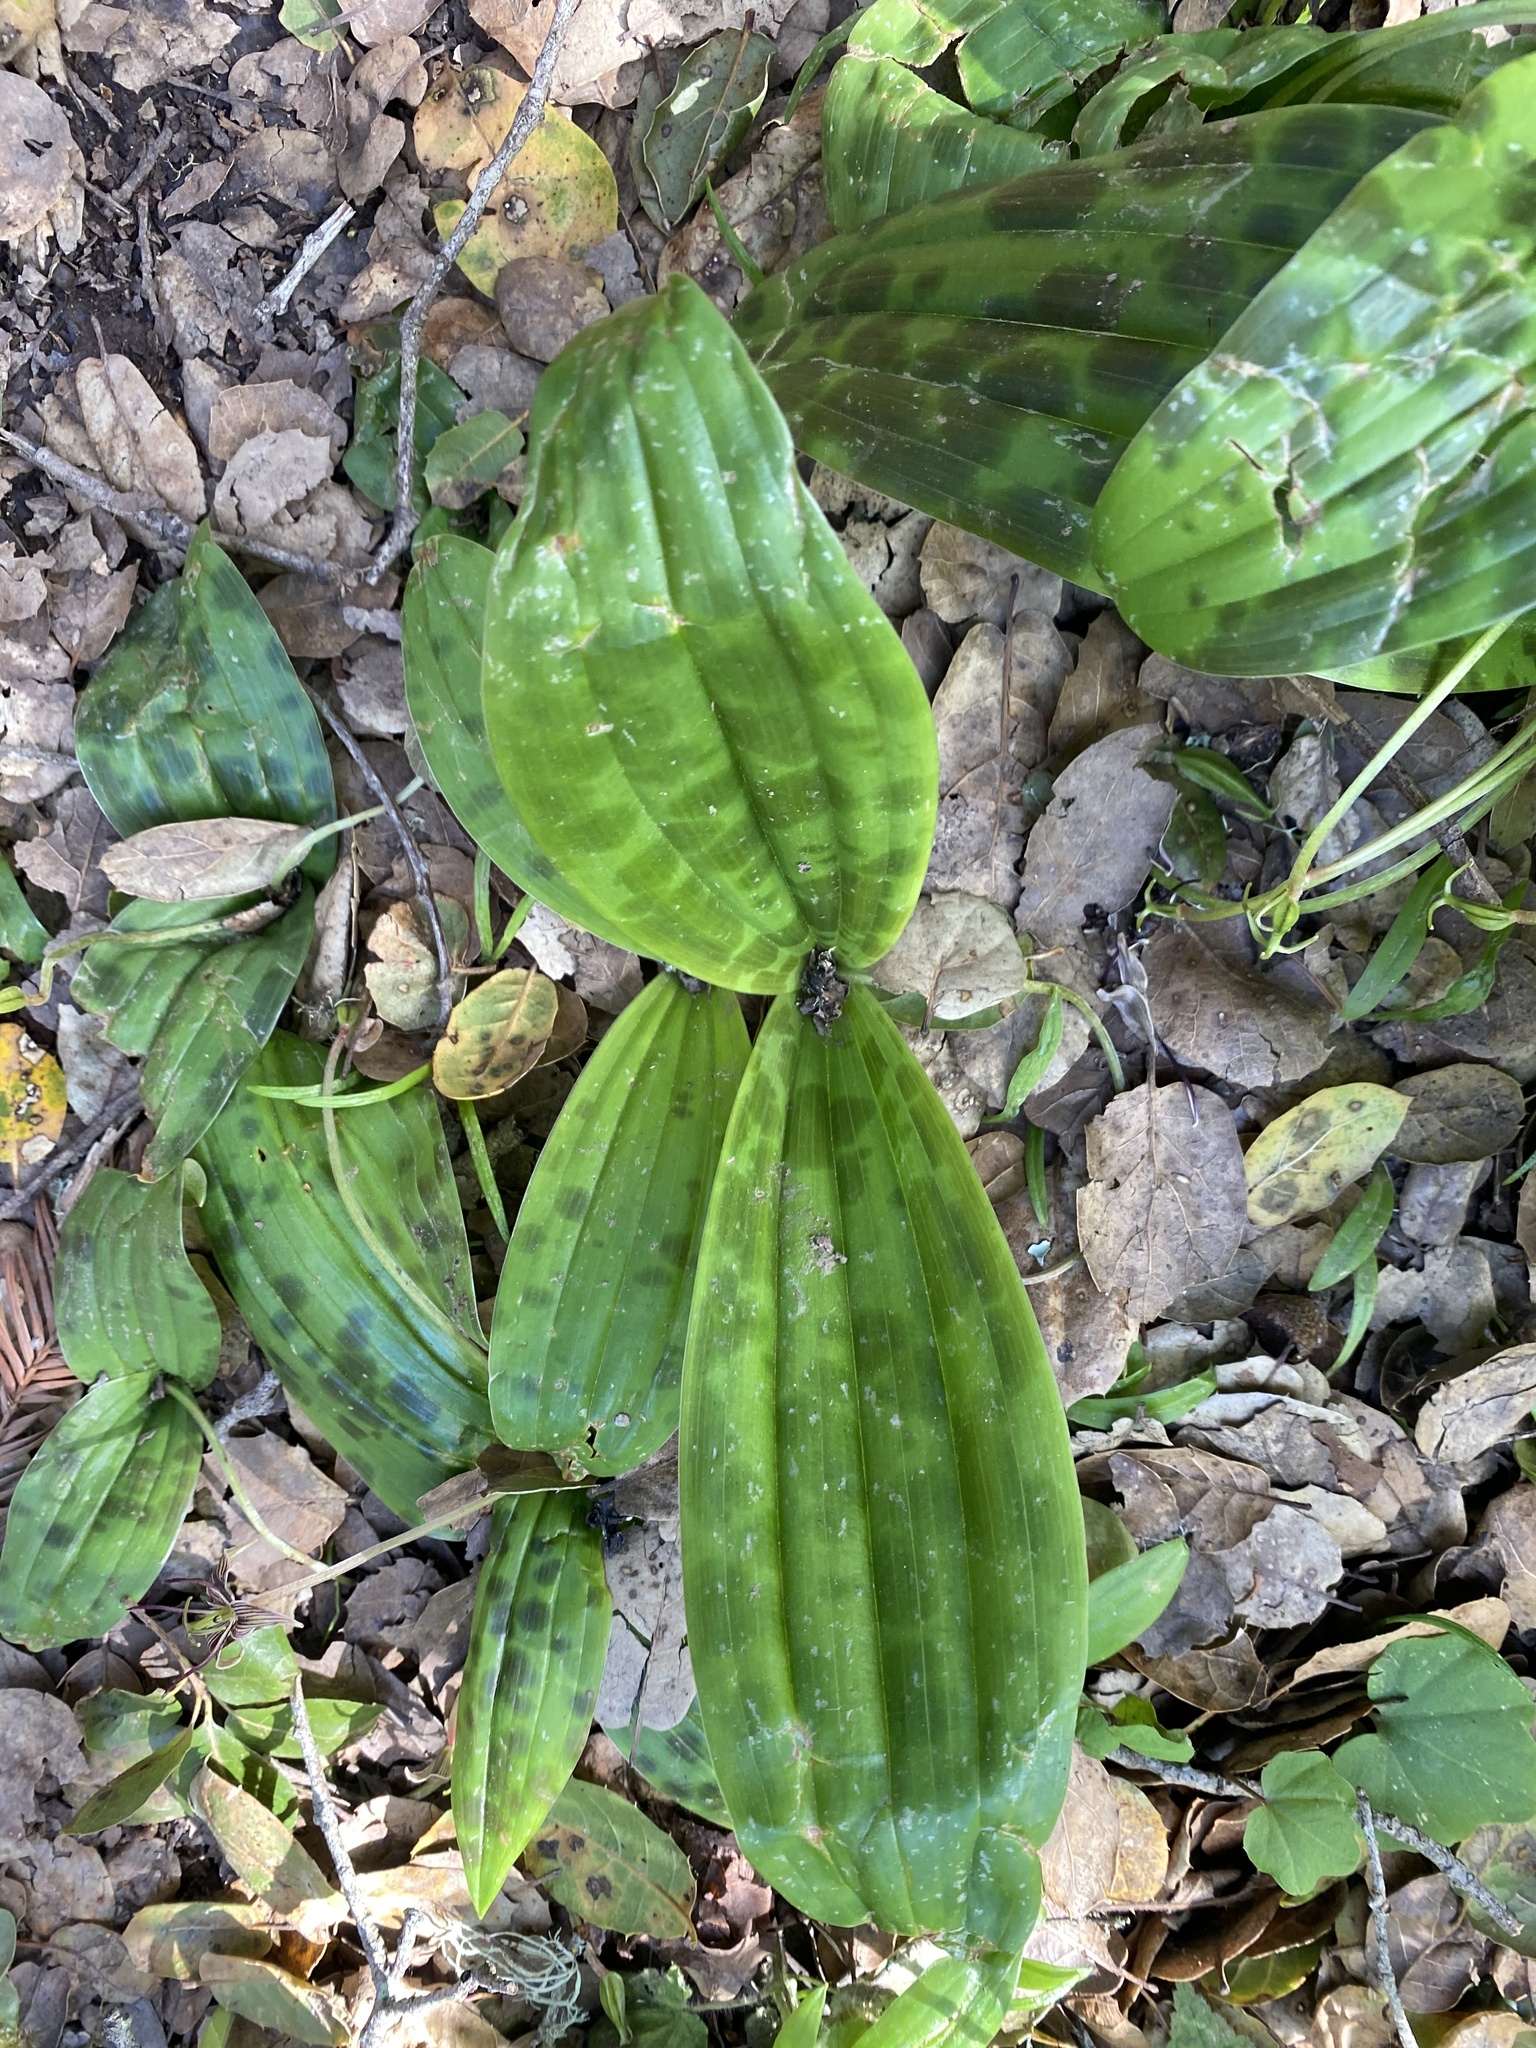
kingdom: Plantae
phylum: Tracheophyta
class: Liliopsida
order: Liliales
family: Liliaceae
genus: Scoliopus
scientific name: Scoliopus bigelovii
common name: Foetid adder's-tongue
